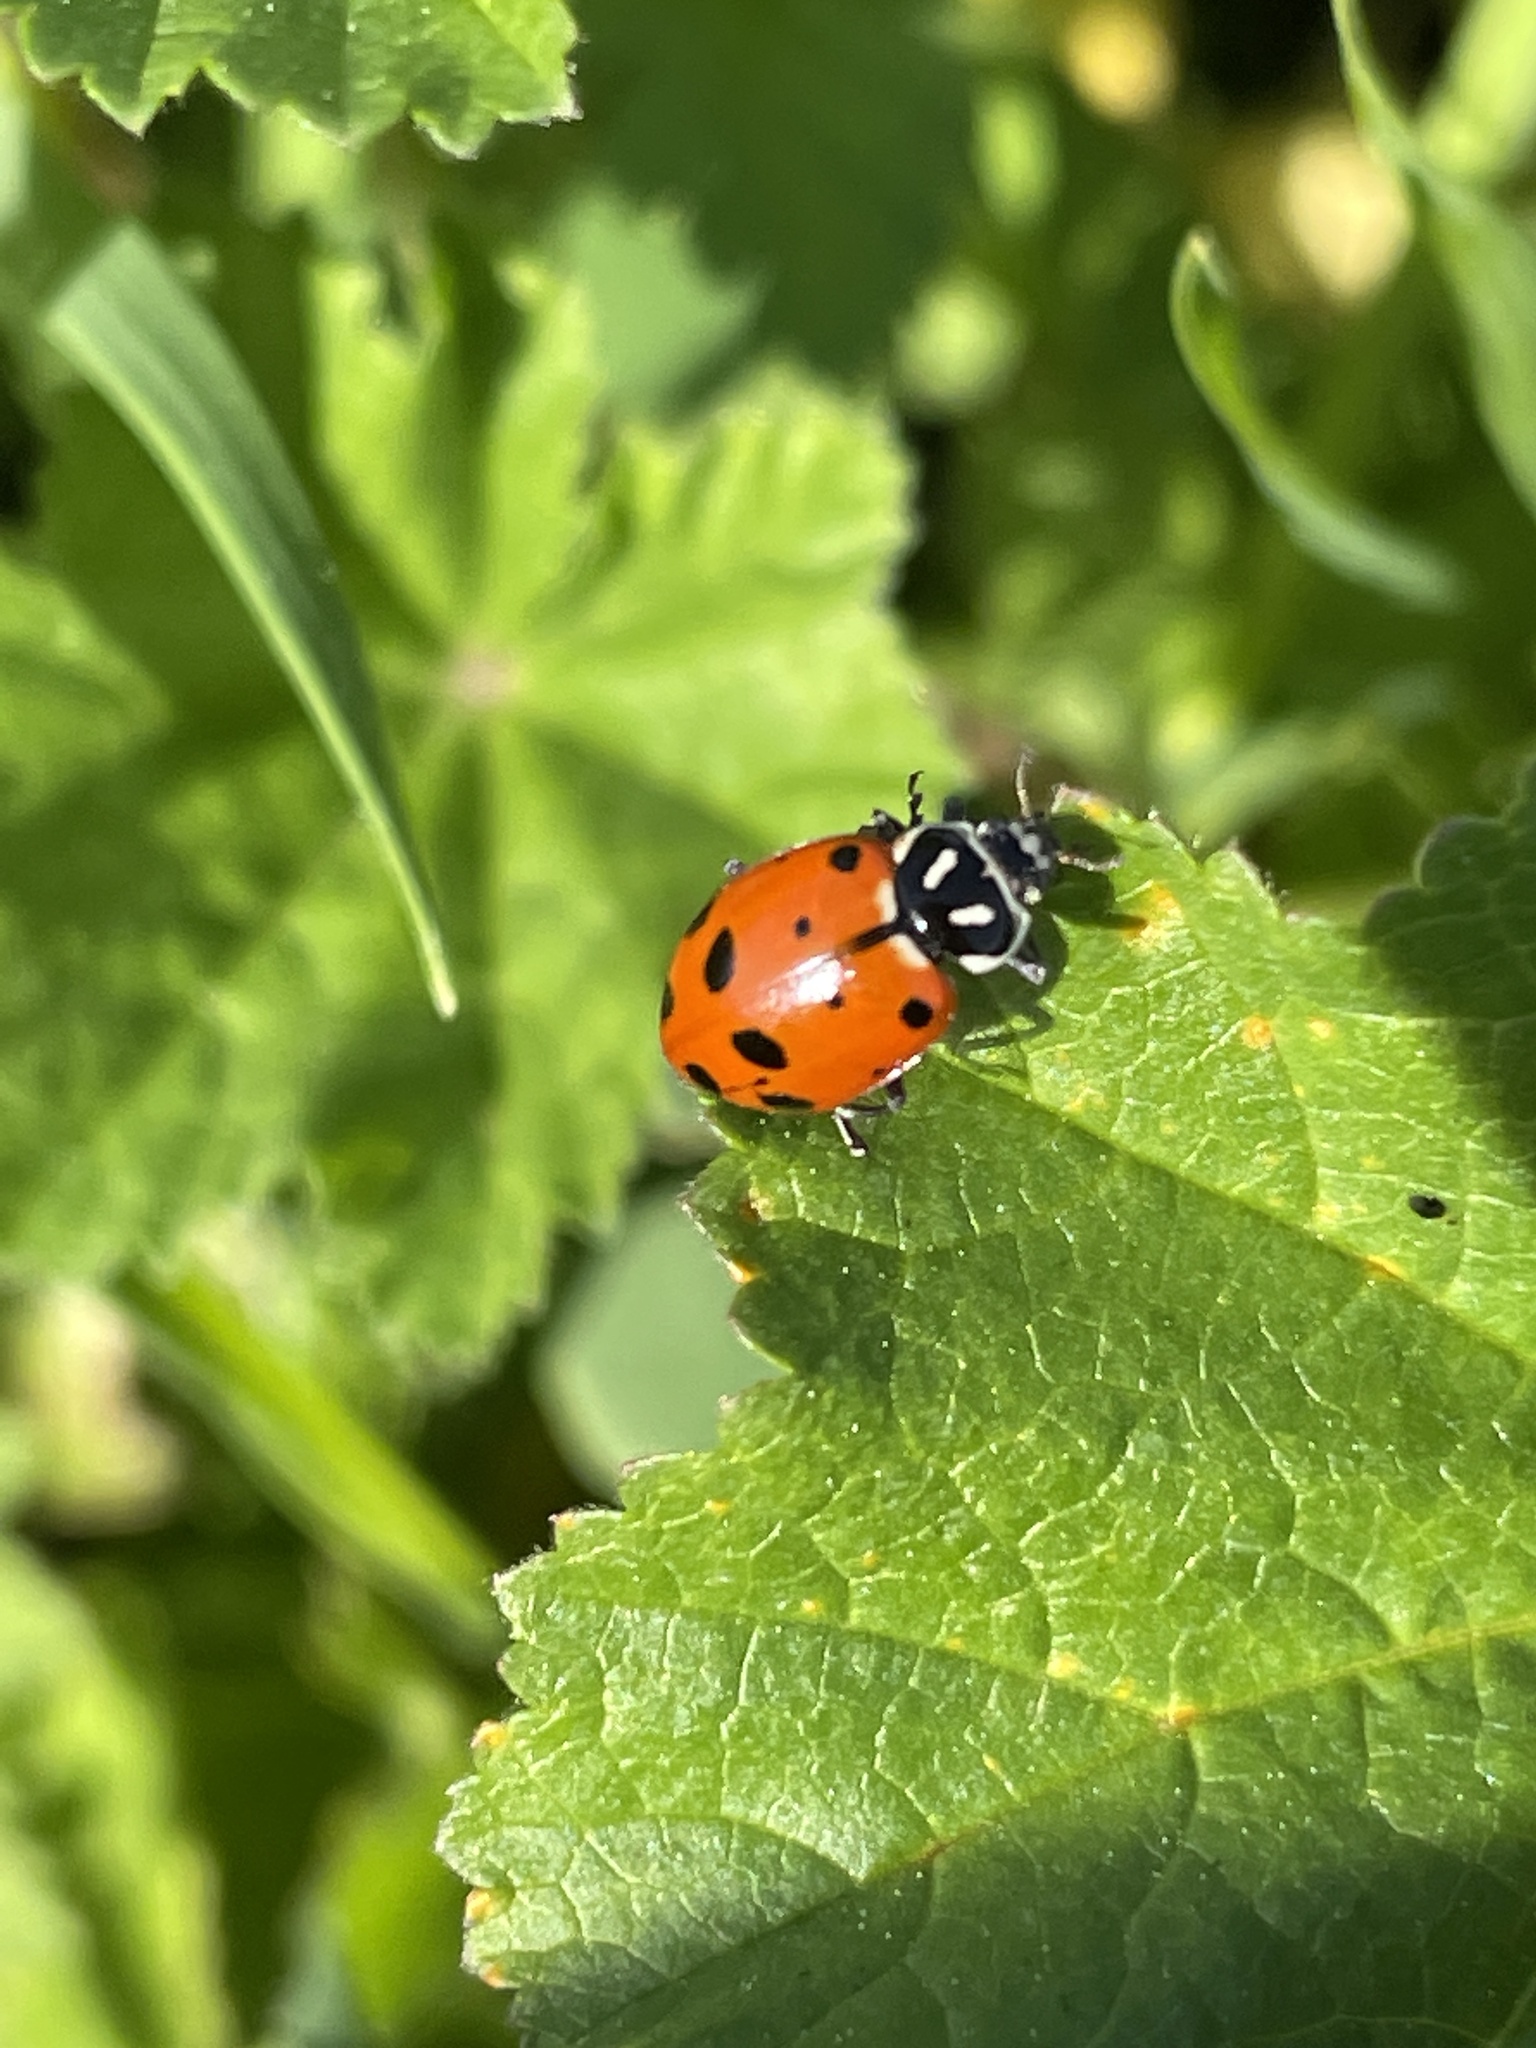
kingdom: Animalia
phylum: Arthropoda
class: Insecta
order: Coleoptera
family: Coccinellidae
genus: Hippodamia
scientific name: Hippodamia convergens
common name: Convergent lady beetle
